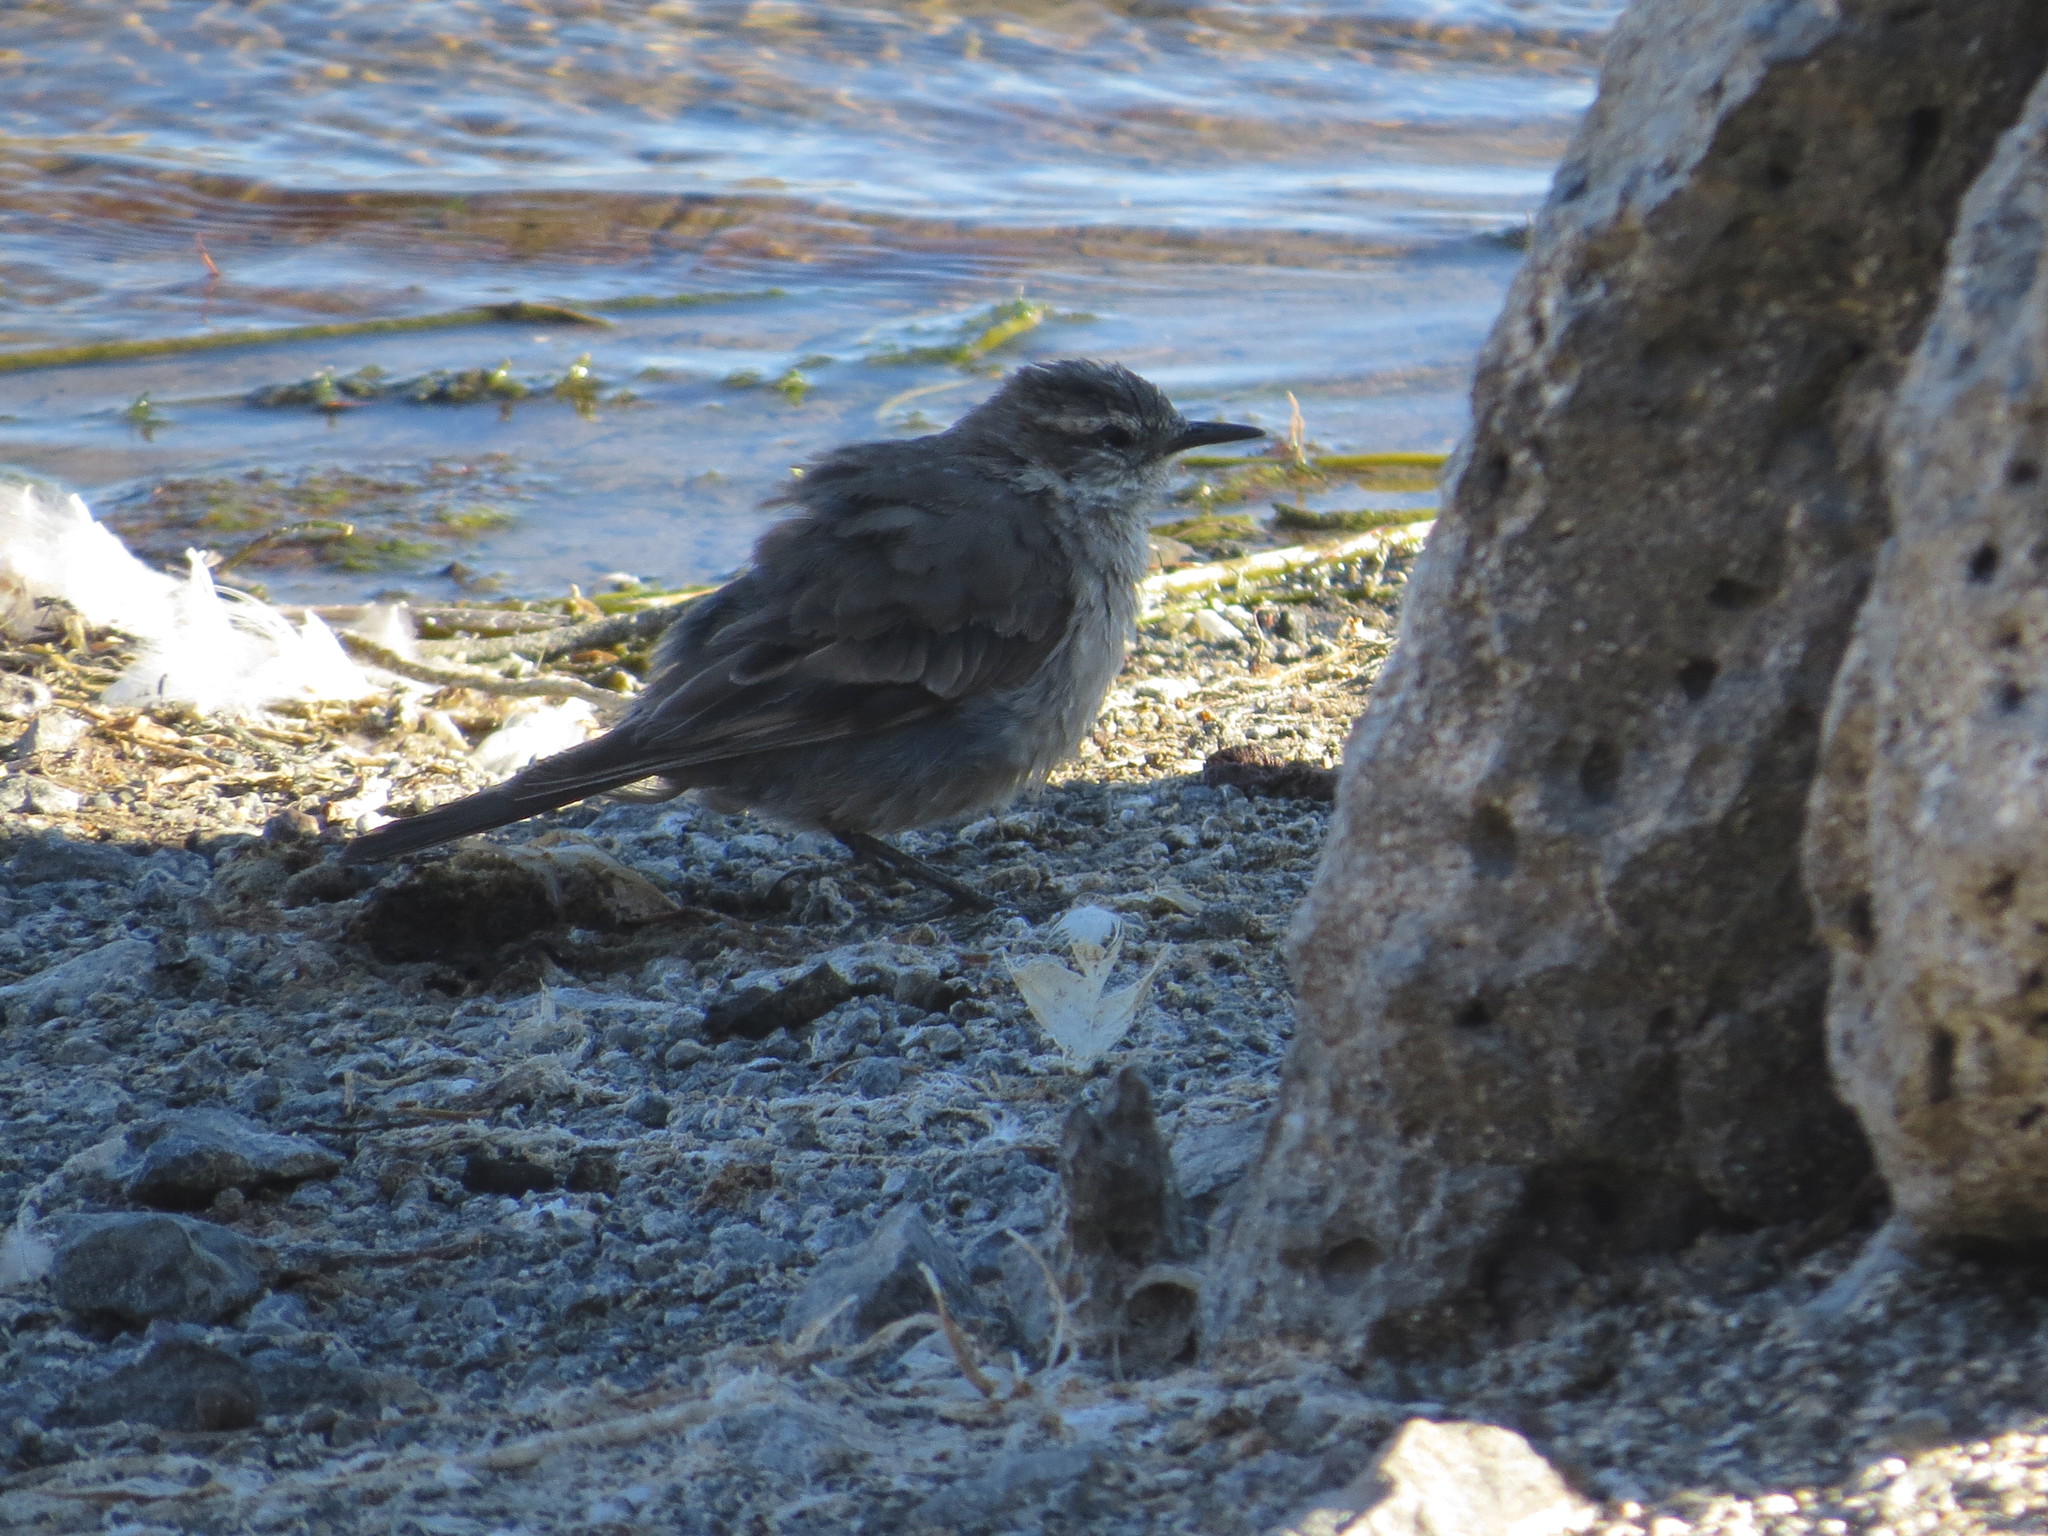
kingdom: Animalia
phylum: Chordata
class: Aves
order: Passeriformes
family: Furnariidae
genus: Cinclodes
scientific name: Cinclodes fuscus
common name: Buff-winged cinclodes
